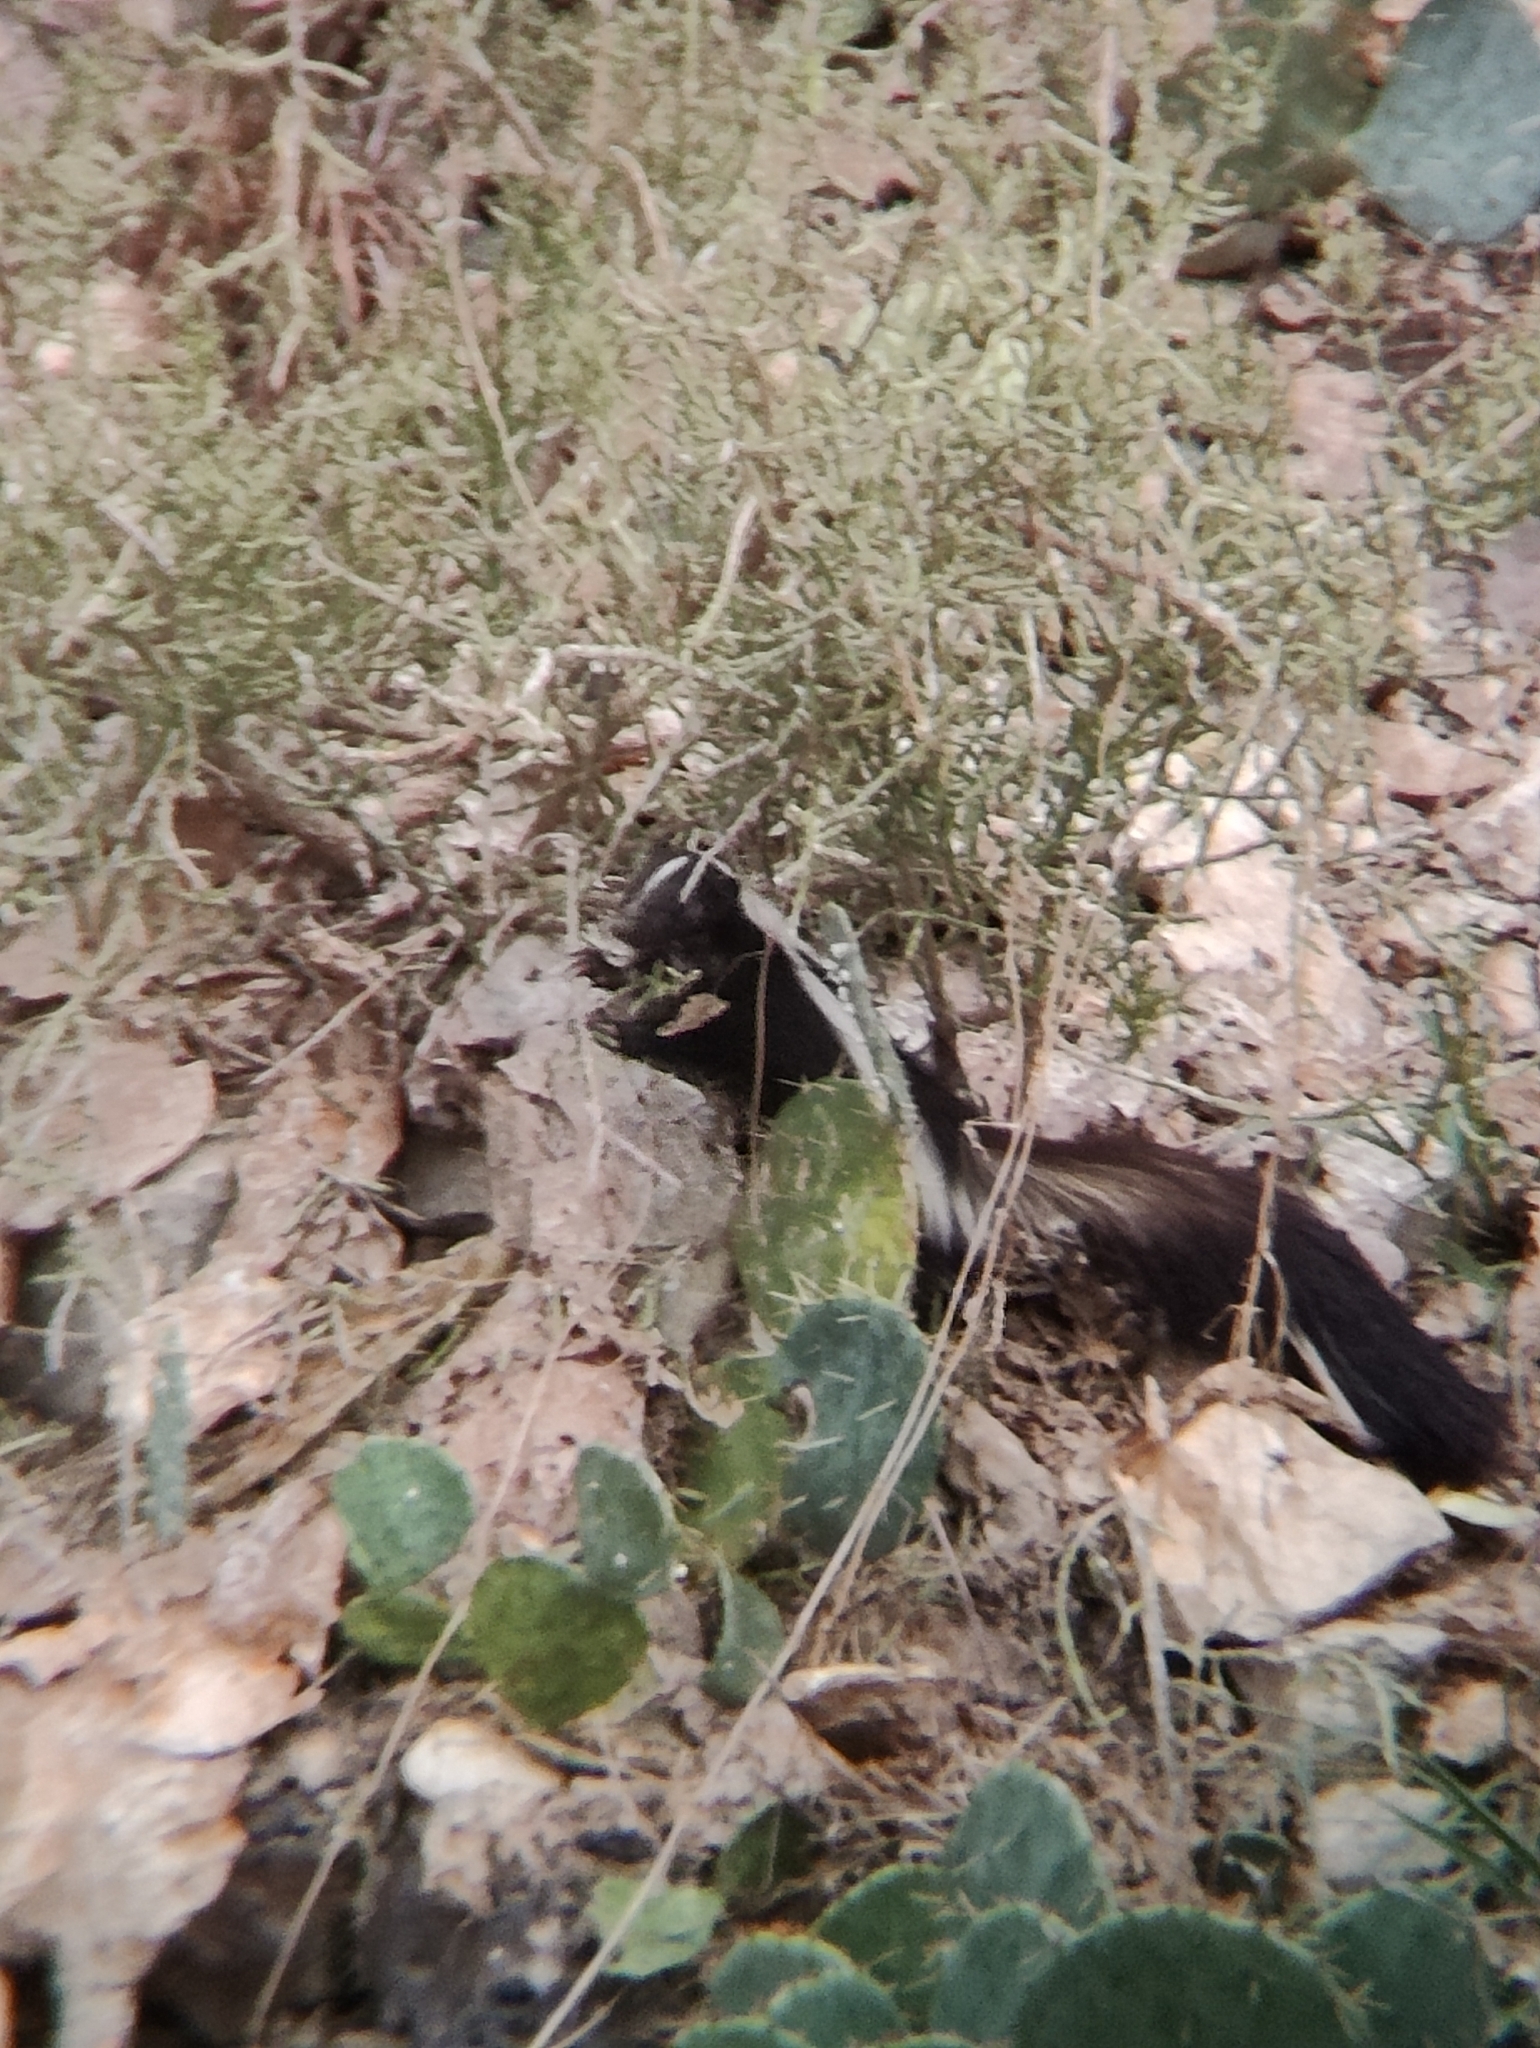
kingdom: Animalia
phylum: Chordata
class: Mammalia
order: Carnivora
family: Mephitidae
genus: Mephitis
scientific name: Mephitis mephitis
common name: Striped skunk
